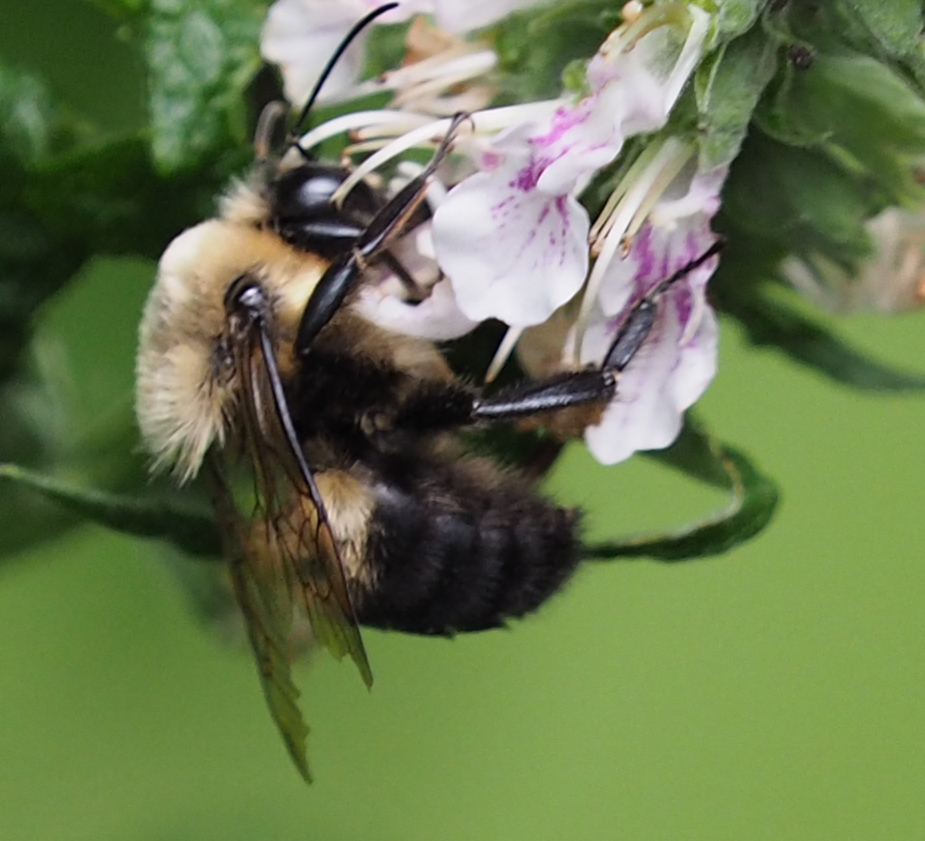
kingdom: Animalia
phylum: Arthropoda
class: Insecta
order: Hymenoptera
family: Apidae
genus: Bombus
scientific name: Bombus griseocollis
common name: Brown-belted bumble bee
